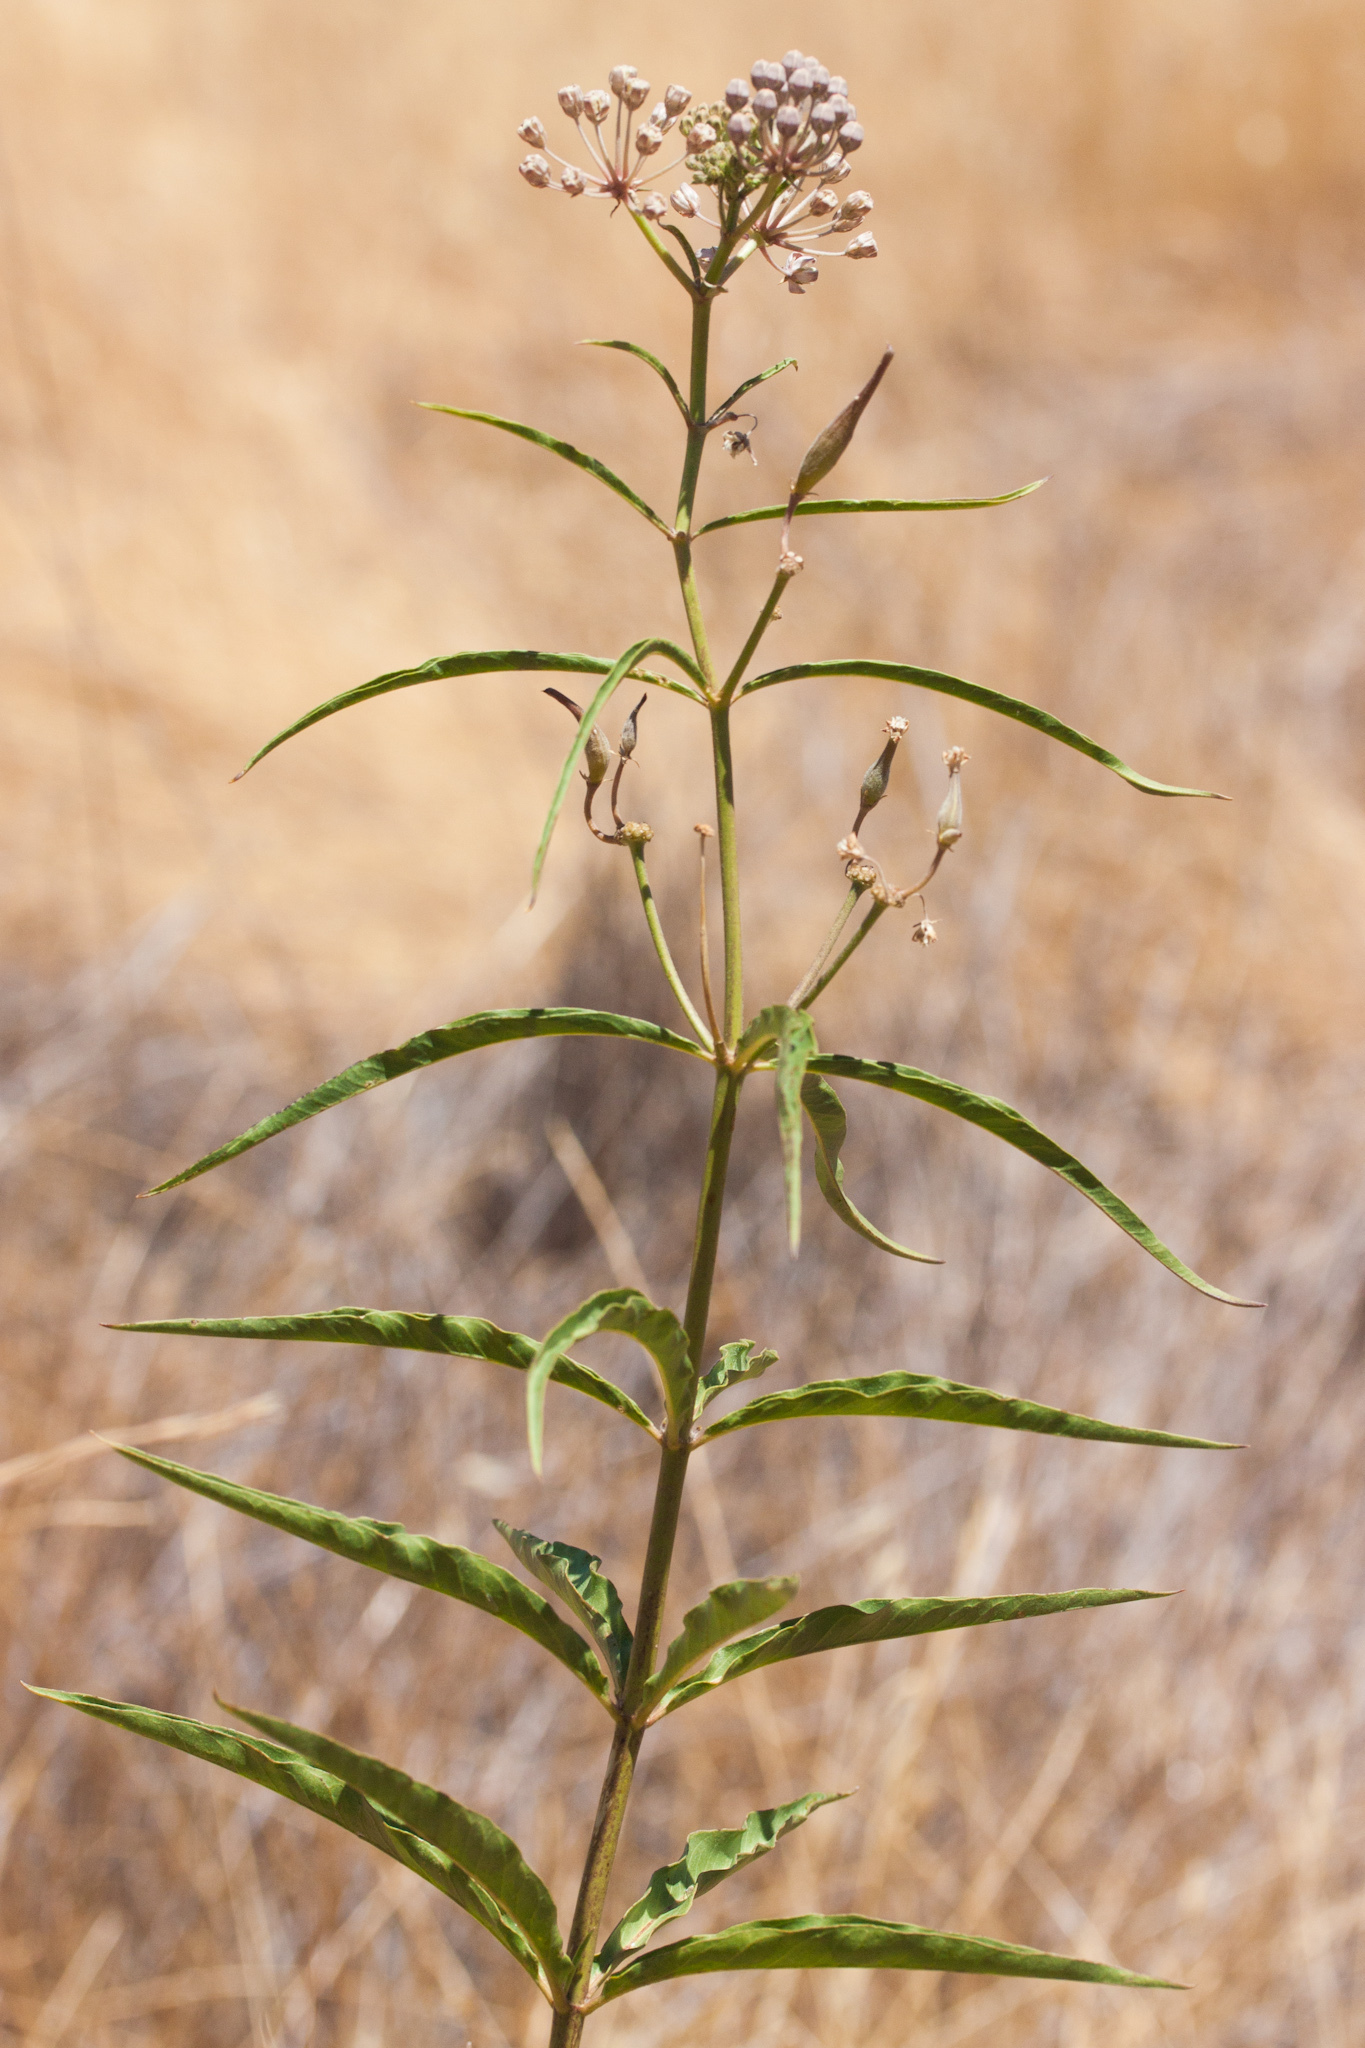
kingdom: Plantae
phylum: Tracheophyta
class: Magnoliopsida
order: Gentianales
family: Apocynaceae
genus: Asclepias
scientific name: Asclepias fascicularis
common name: Mexican milkweed
